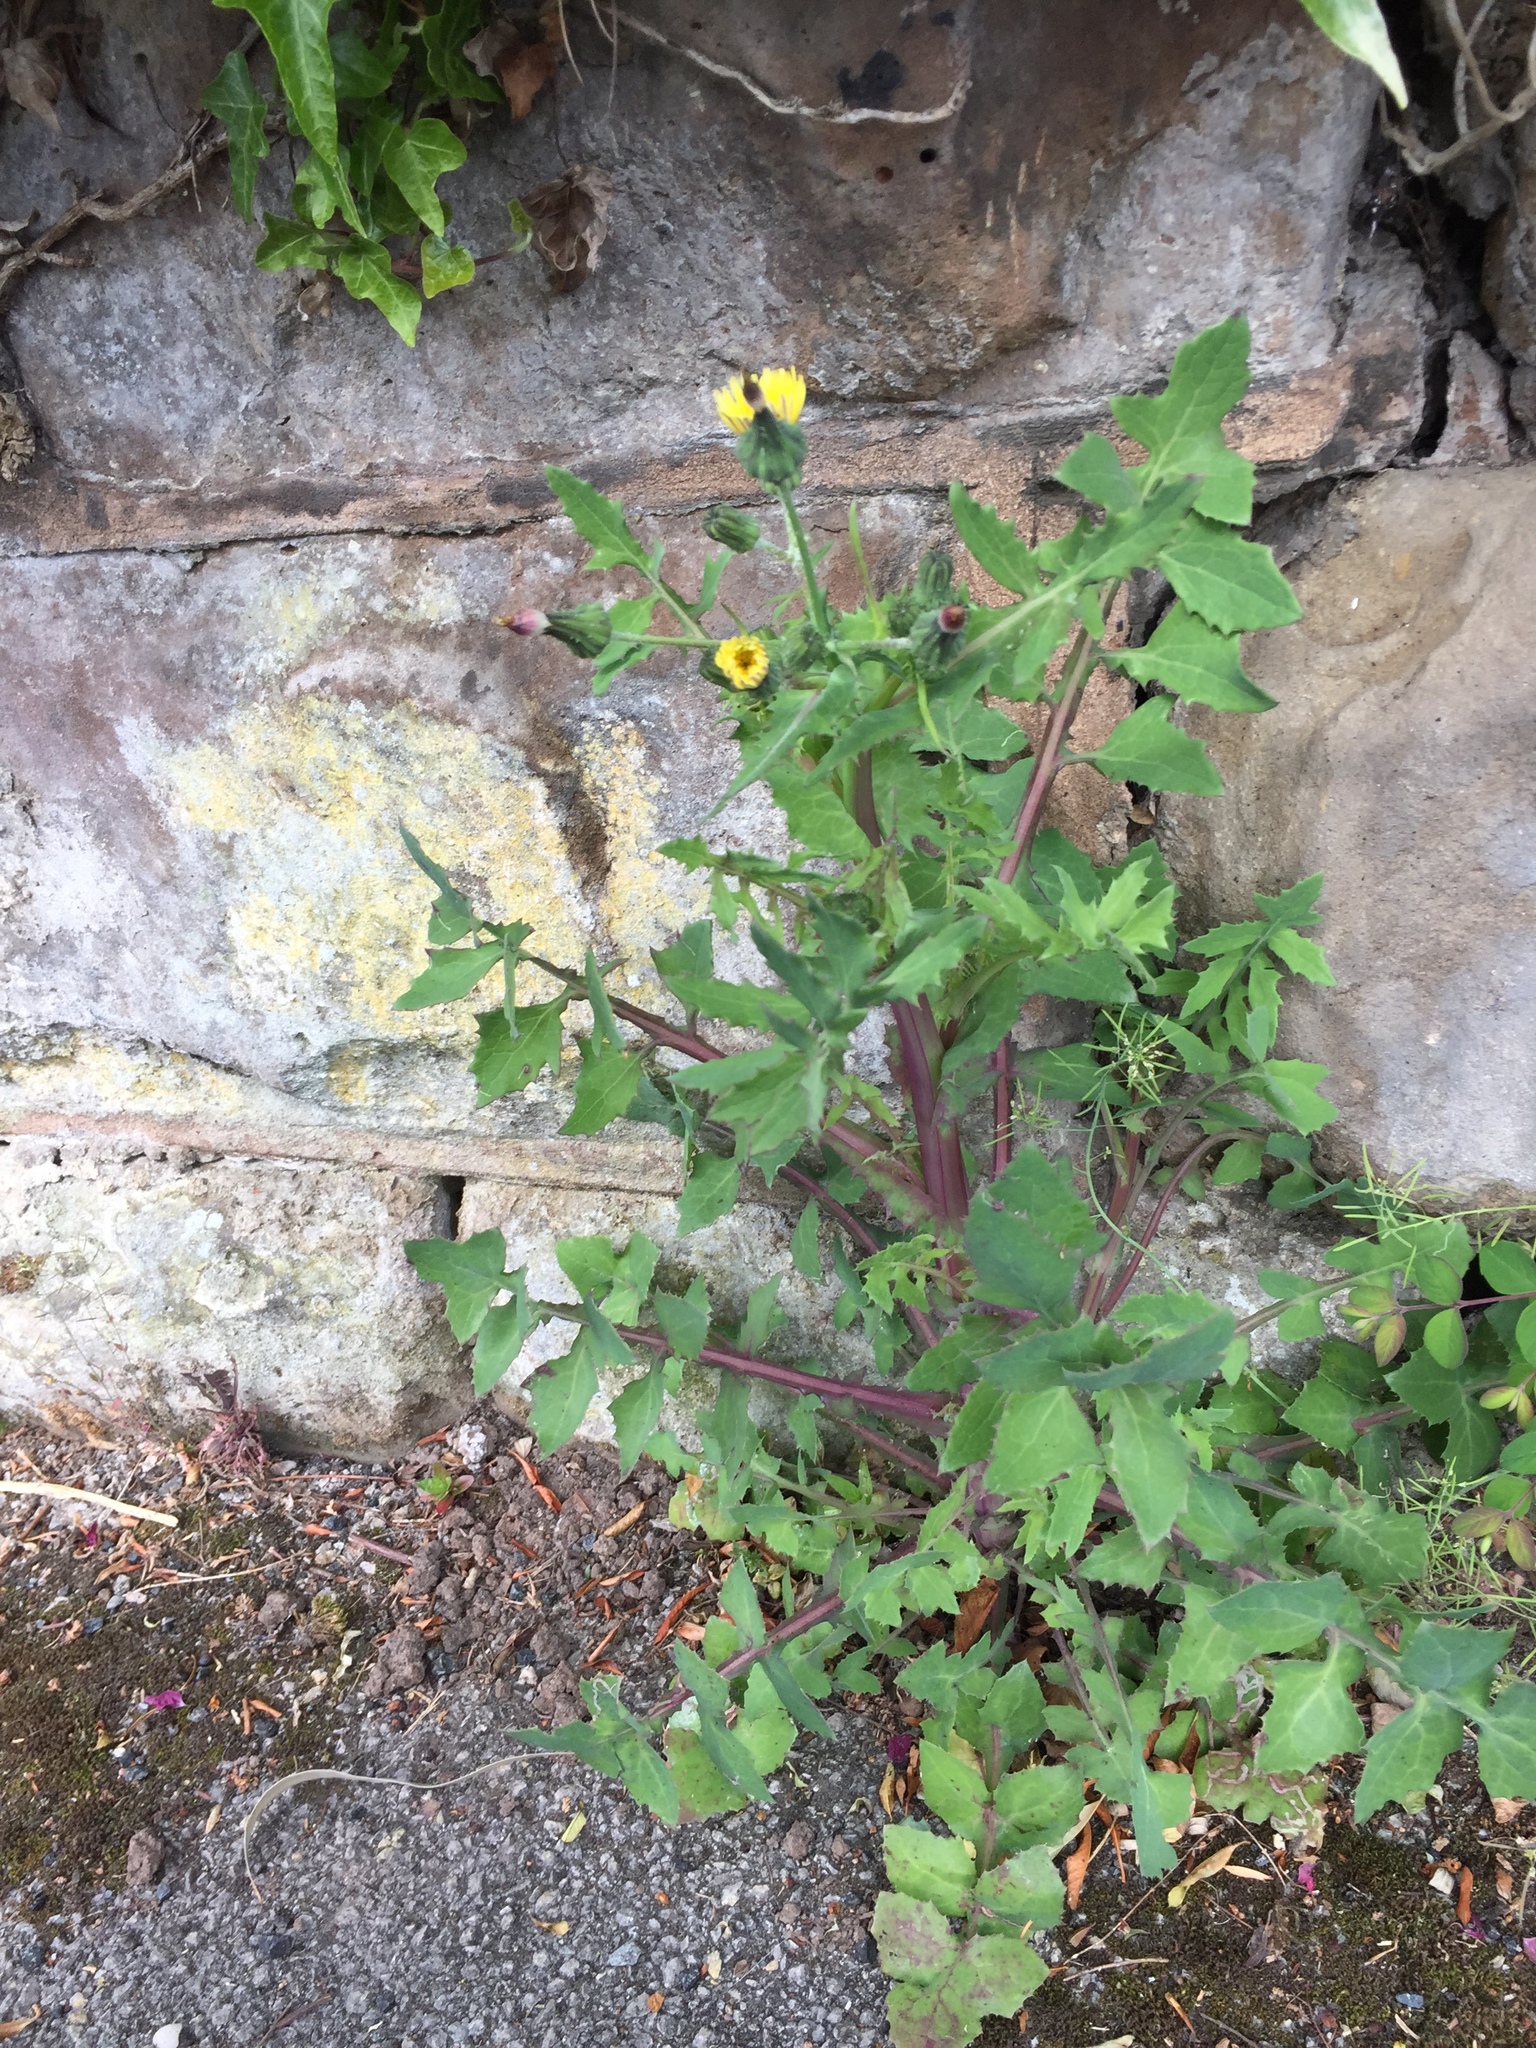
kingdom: Plantae
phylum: Tracheophyta
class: Magnoliopsida
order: Asterales
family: Asteraceae
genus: Sonchus
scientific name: Sonchus oleraceus
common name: Common sowthistle
